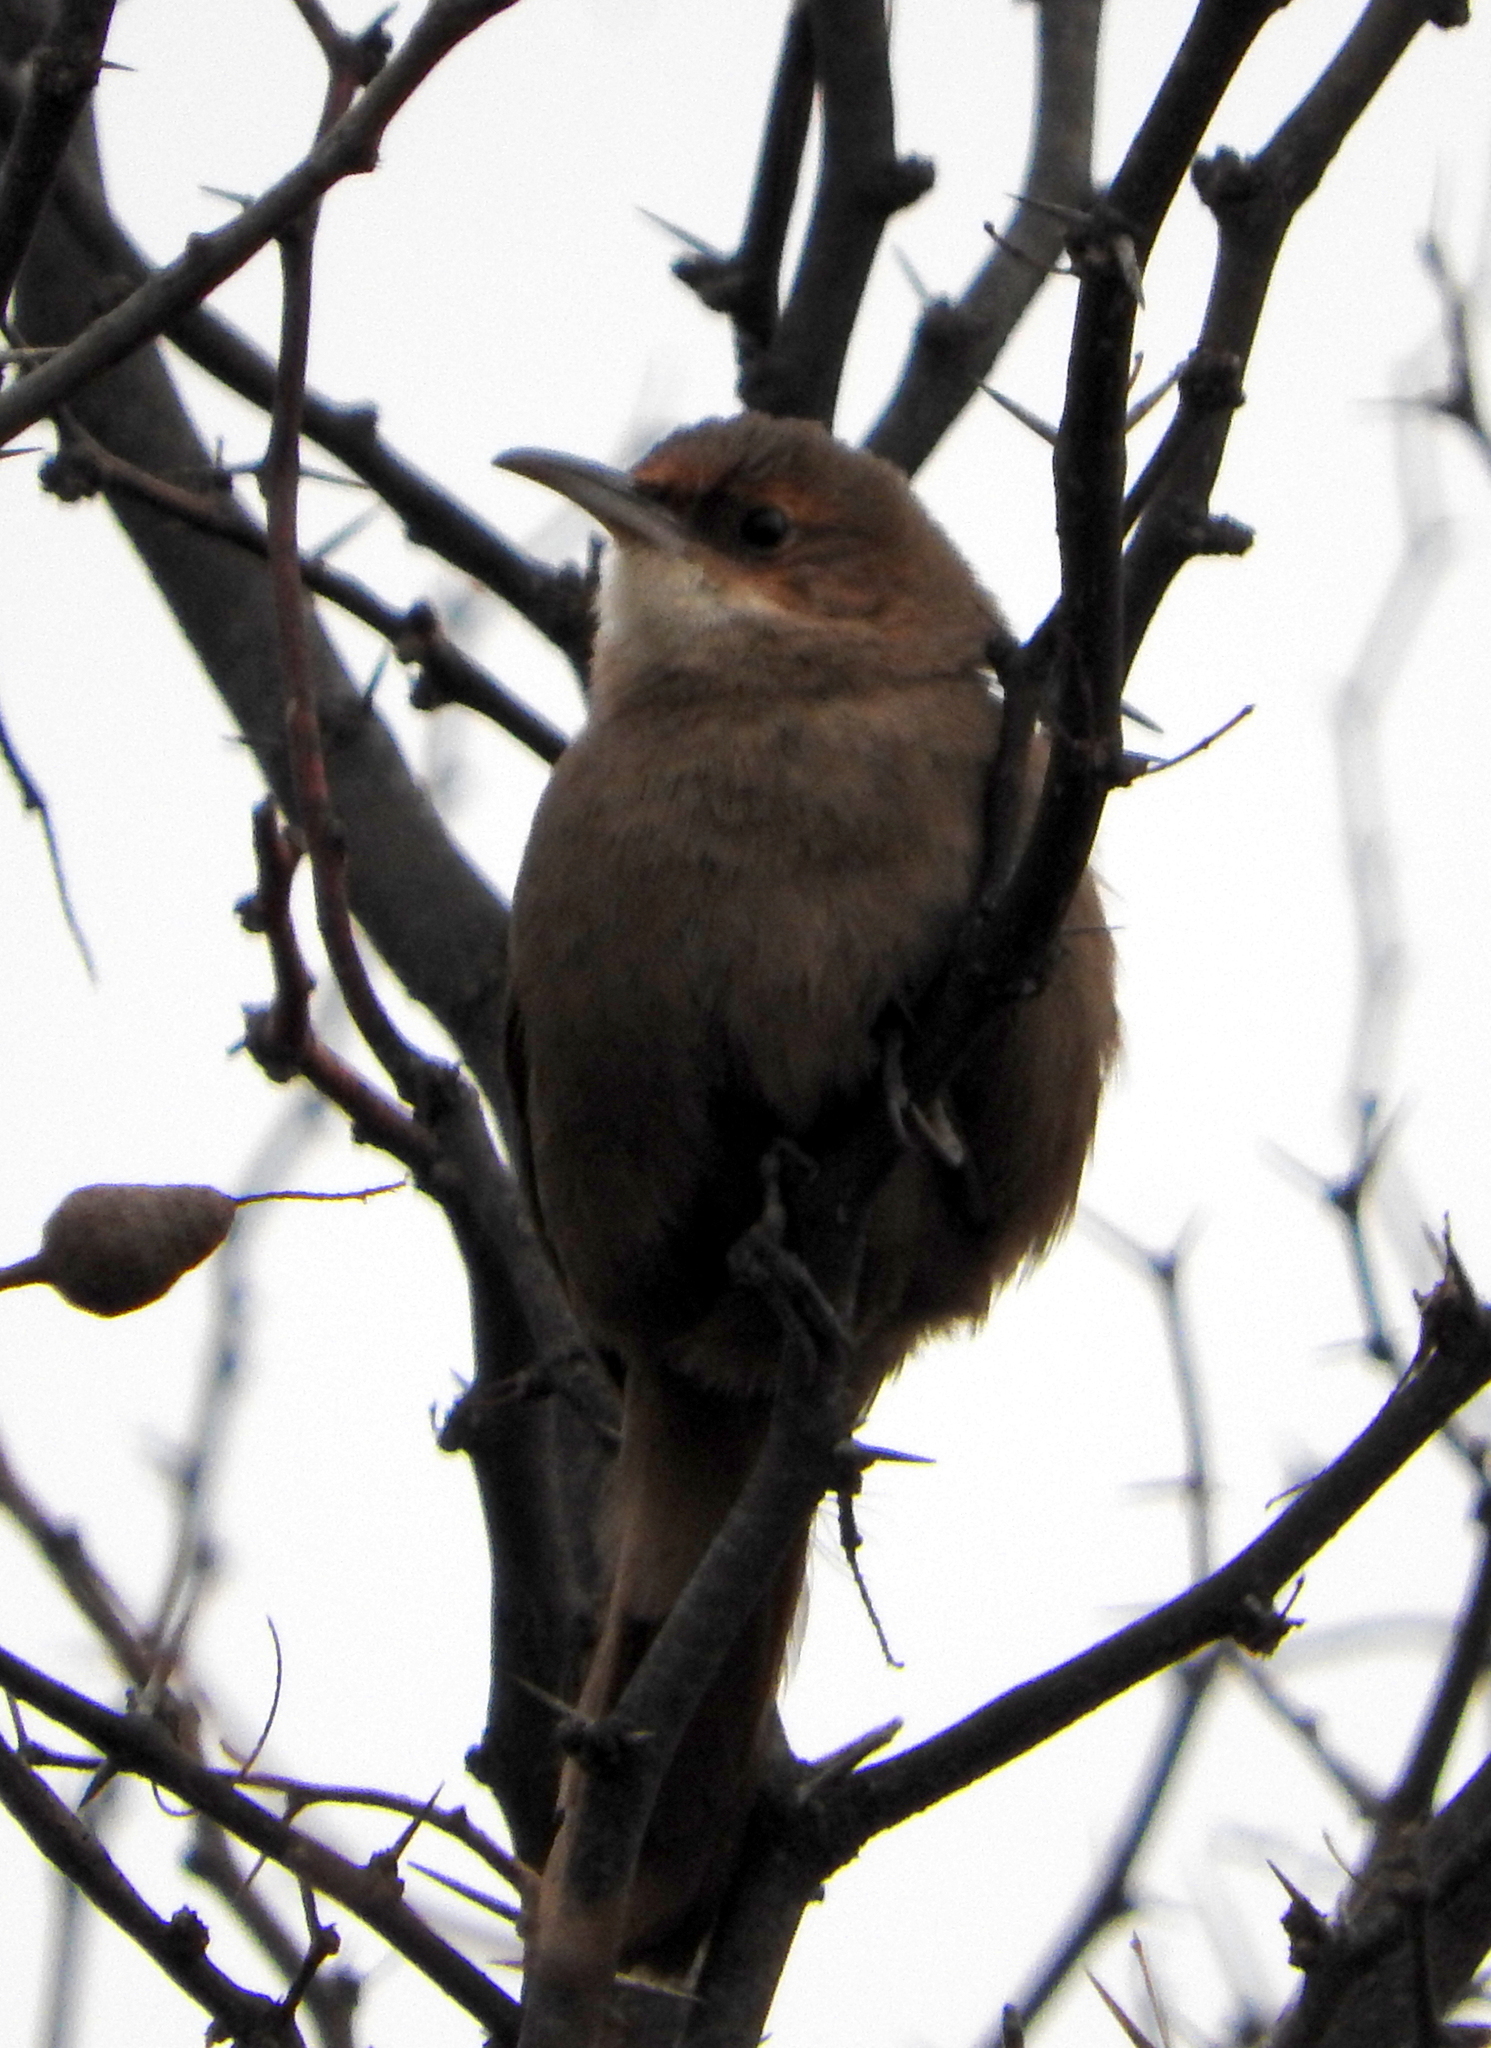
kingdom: Animalia
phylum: Chordata
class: Aves
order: Passeriformes
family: Furnariidae
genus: Upucerthia
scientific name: Upucerthia certhioides
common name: Chaco earthcreeper
